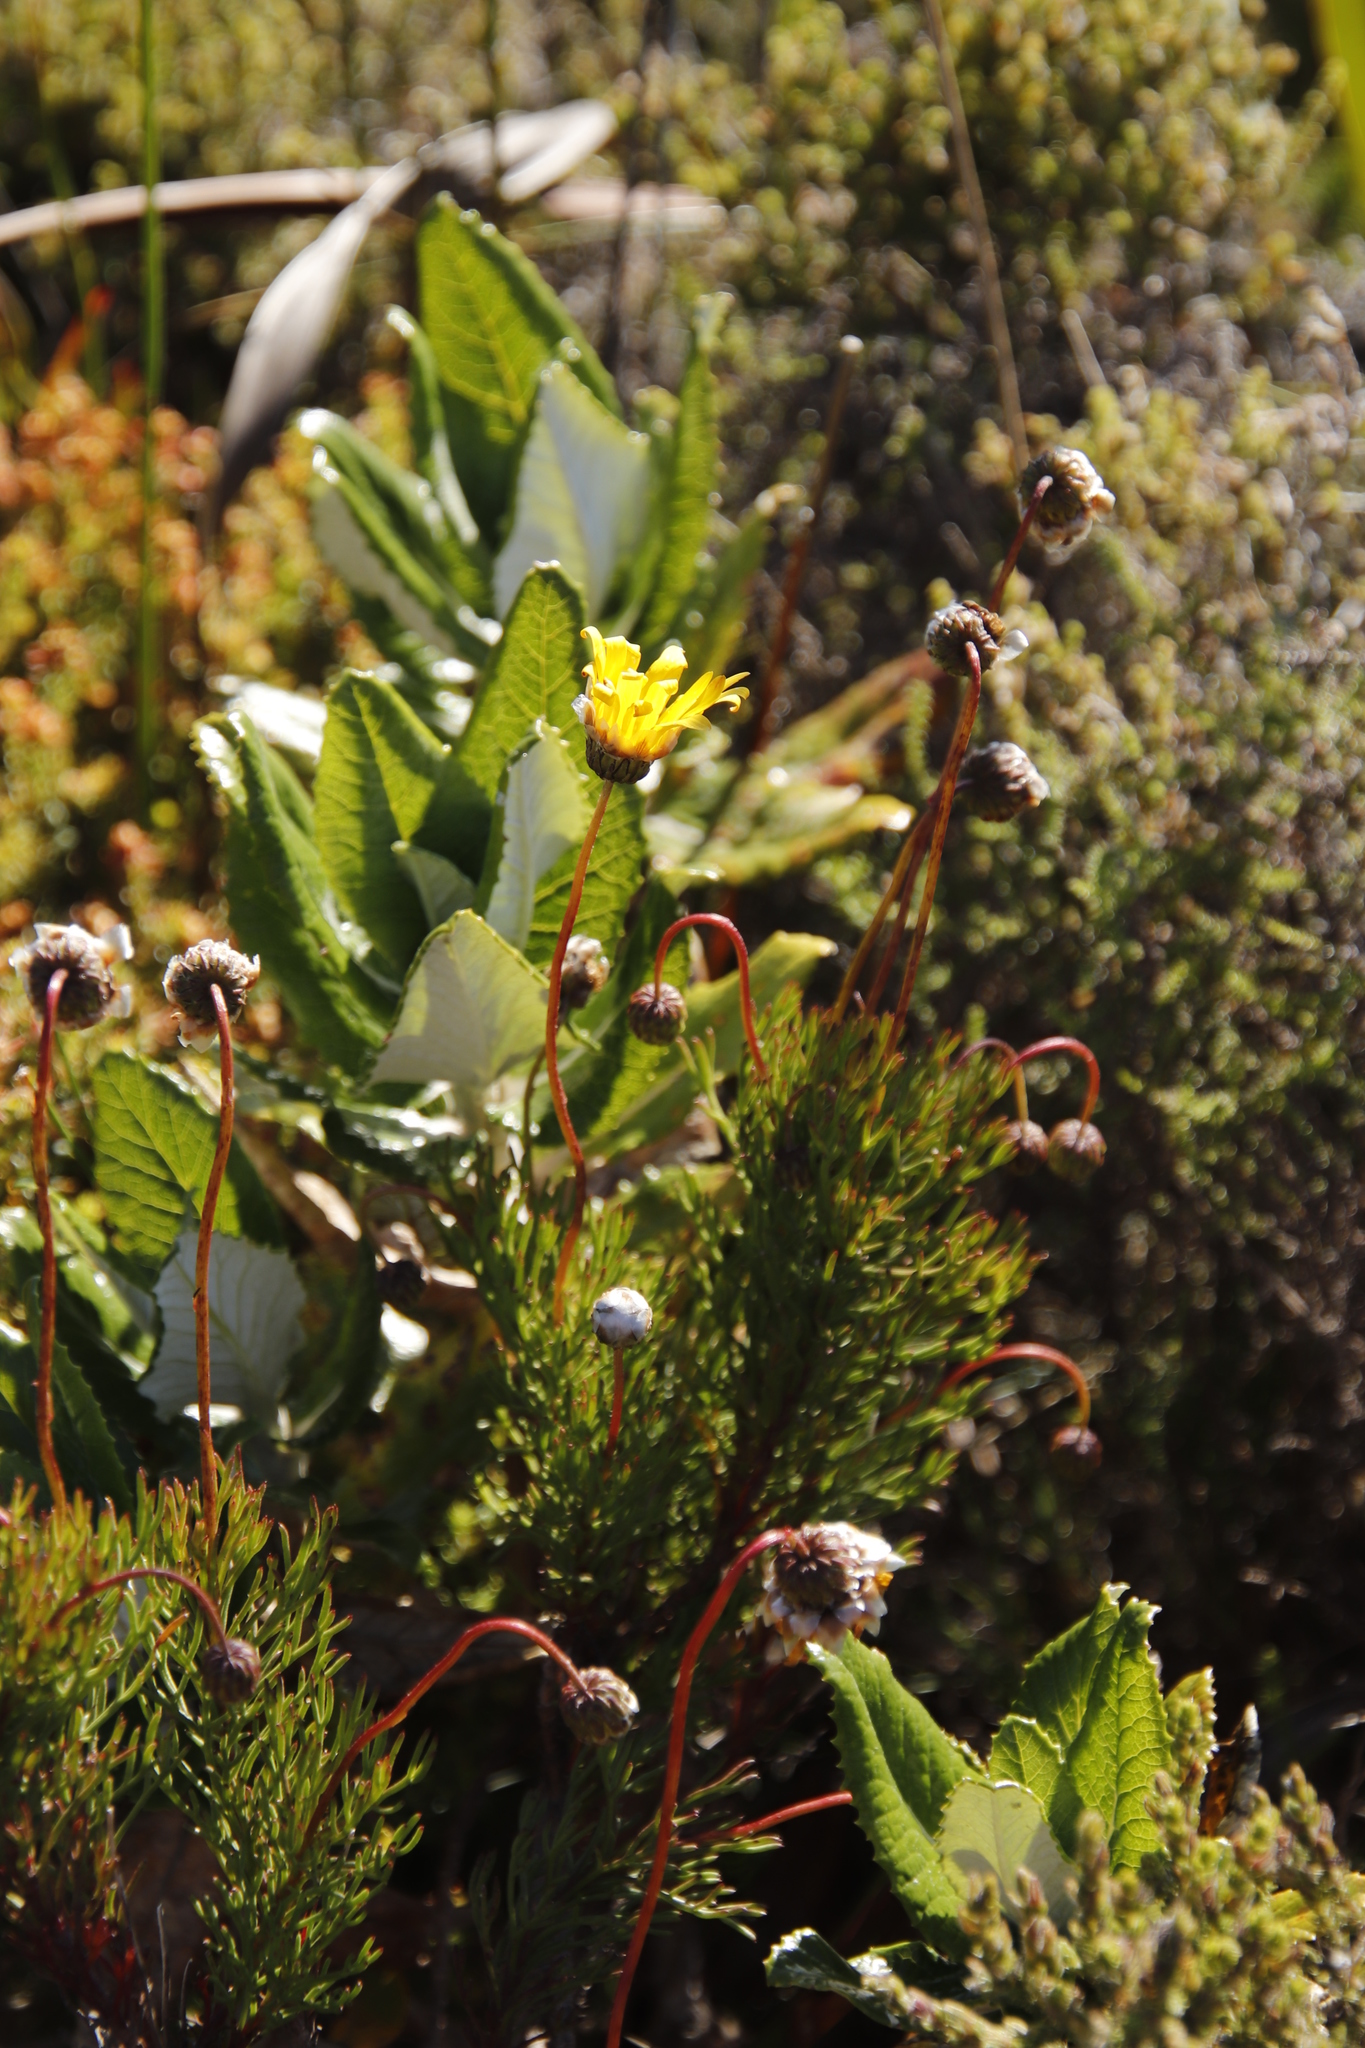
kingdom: Plantae
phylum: Tracheophyta
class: Magnoliopsida
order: Asterales
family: Asteraceae
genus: Euryops
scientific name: Euryops abrotanifolius
